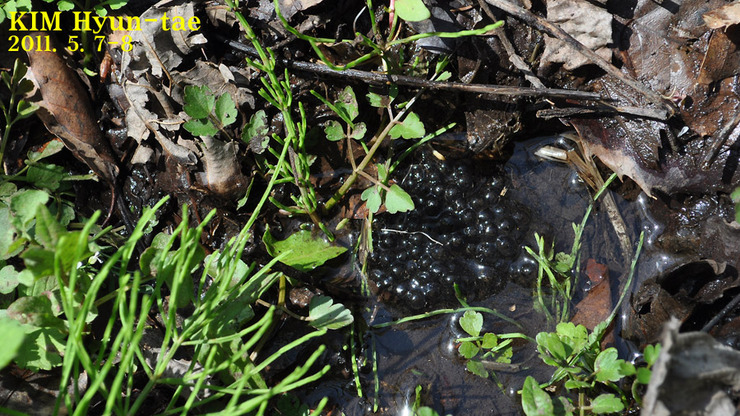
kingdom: Animalia
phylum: Chordata
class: Amphibia
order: Anura
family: Ranidae
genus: Rana
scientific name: Rana huanrenensis
